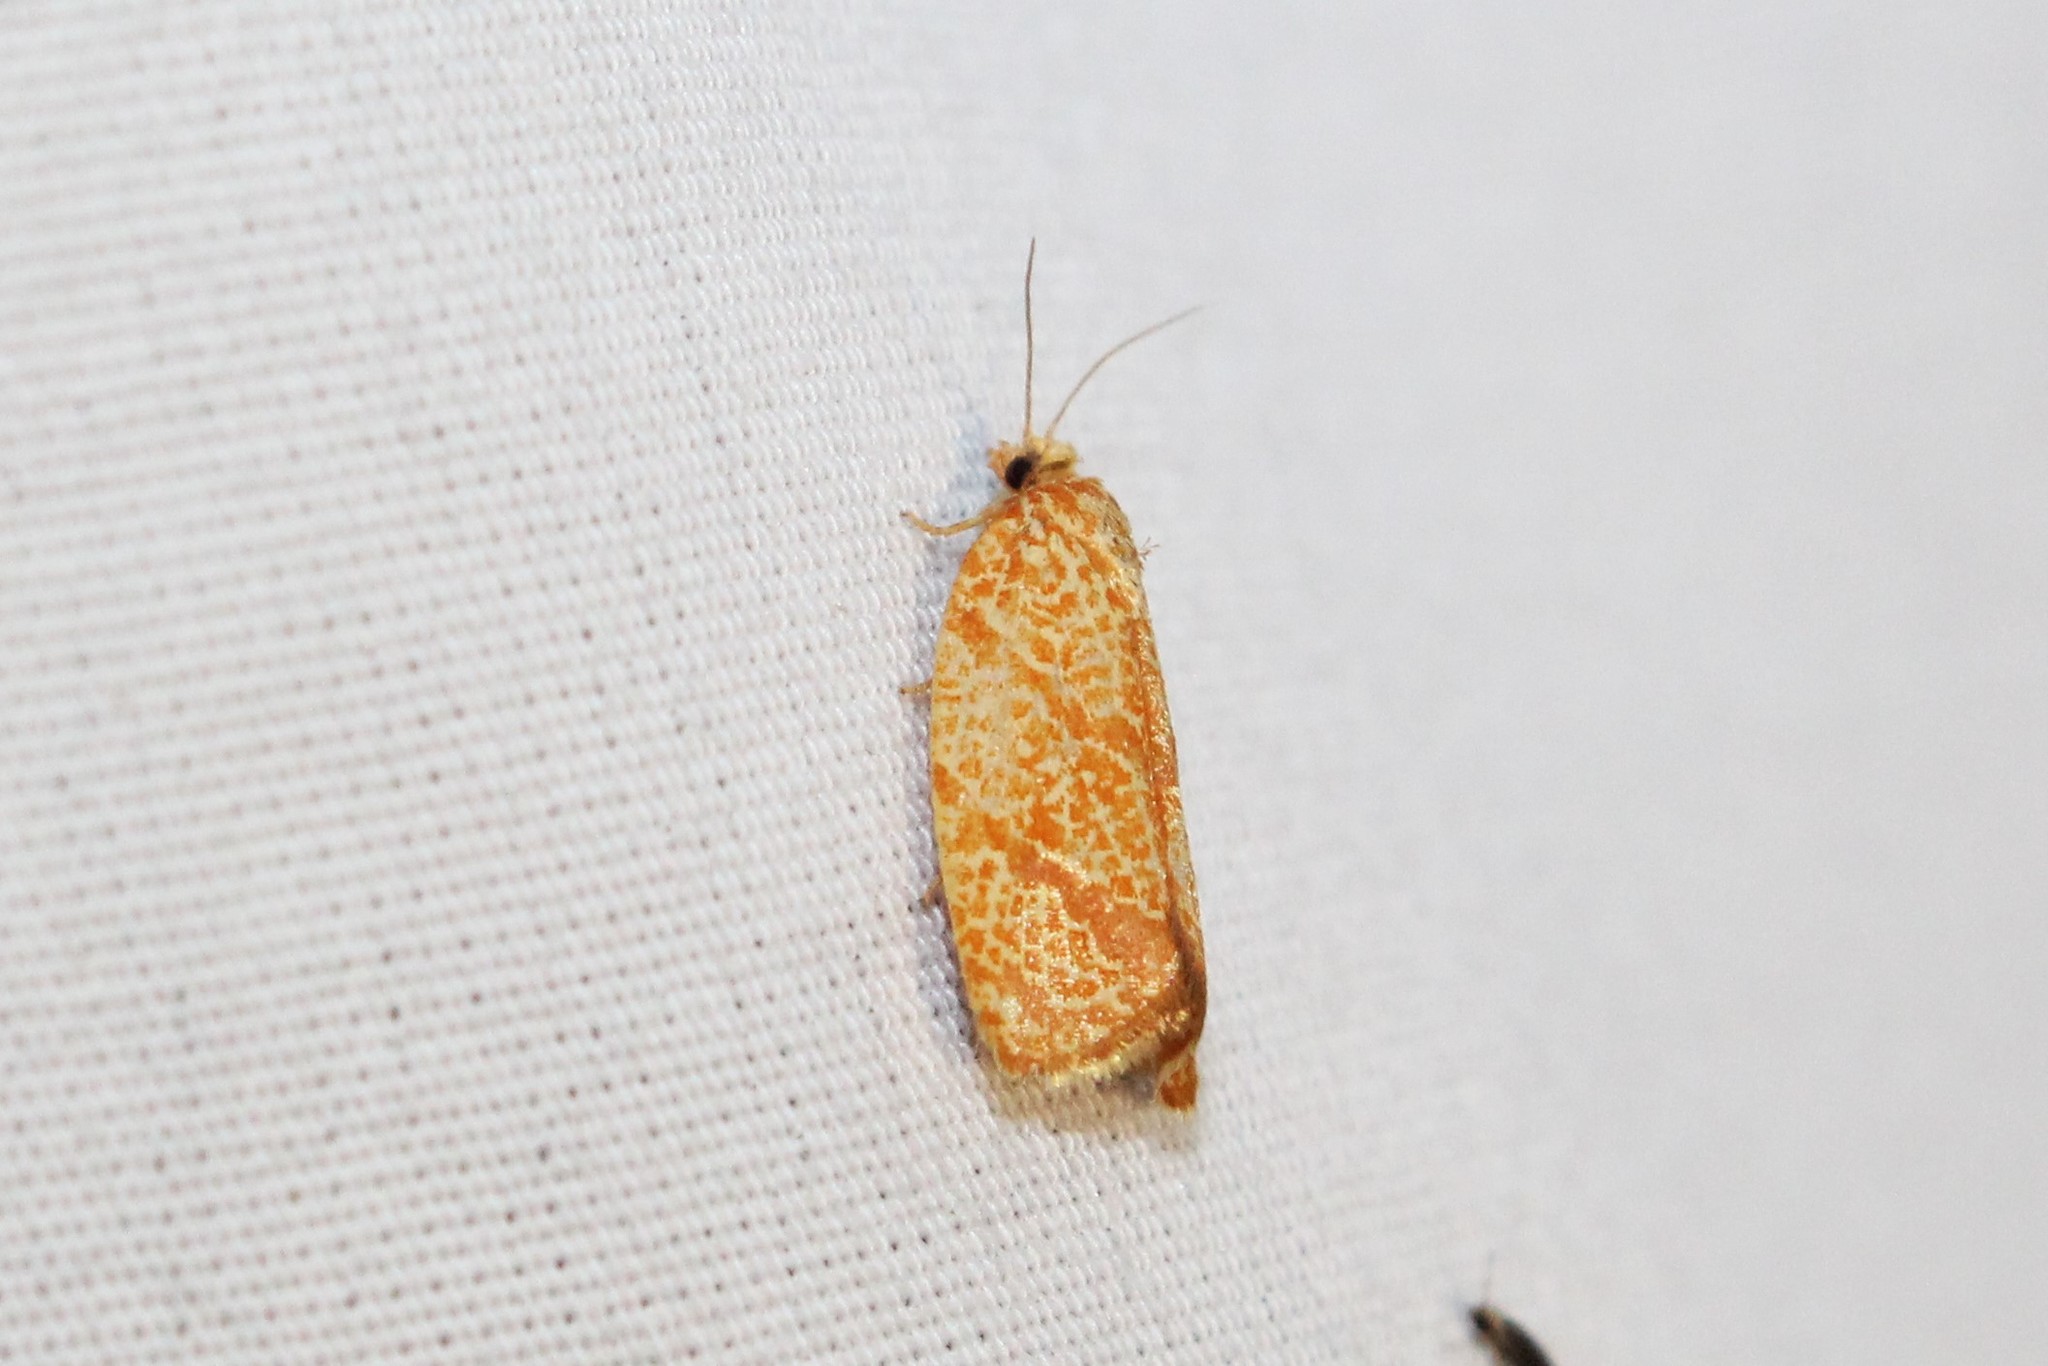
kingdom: Animalia
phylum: Arthropoda
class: Insecta
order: Lepidoptera
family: Tortricidae
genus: Argyrotaenia
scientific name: Argyrotaenia quadrifasciana
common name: Four-lined leafroller moth
